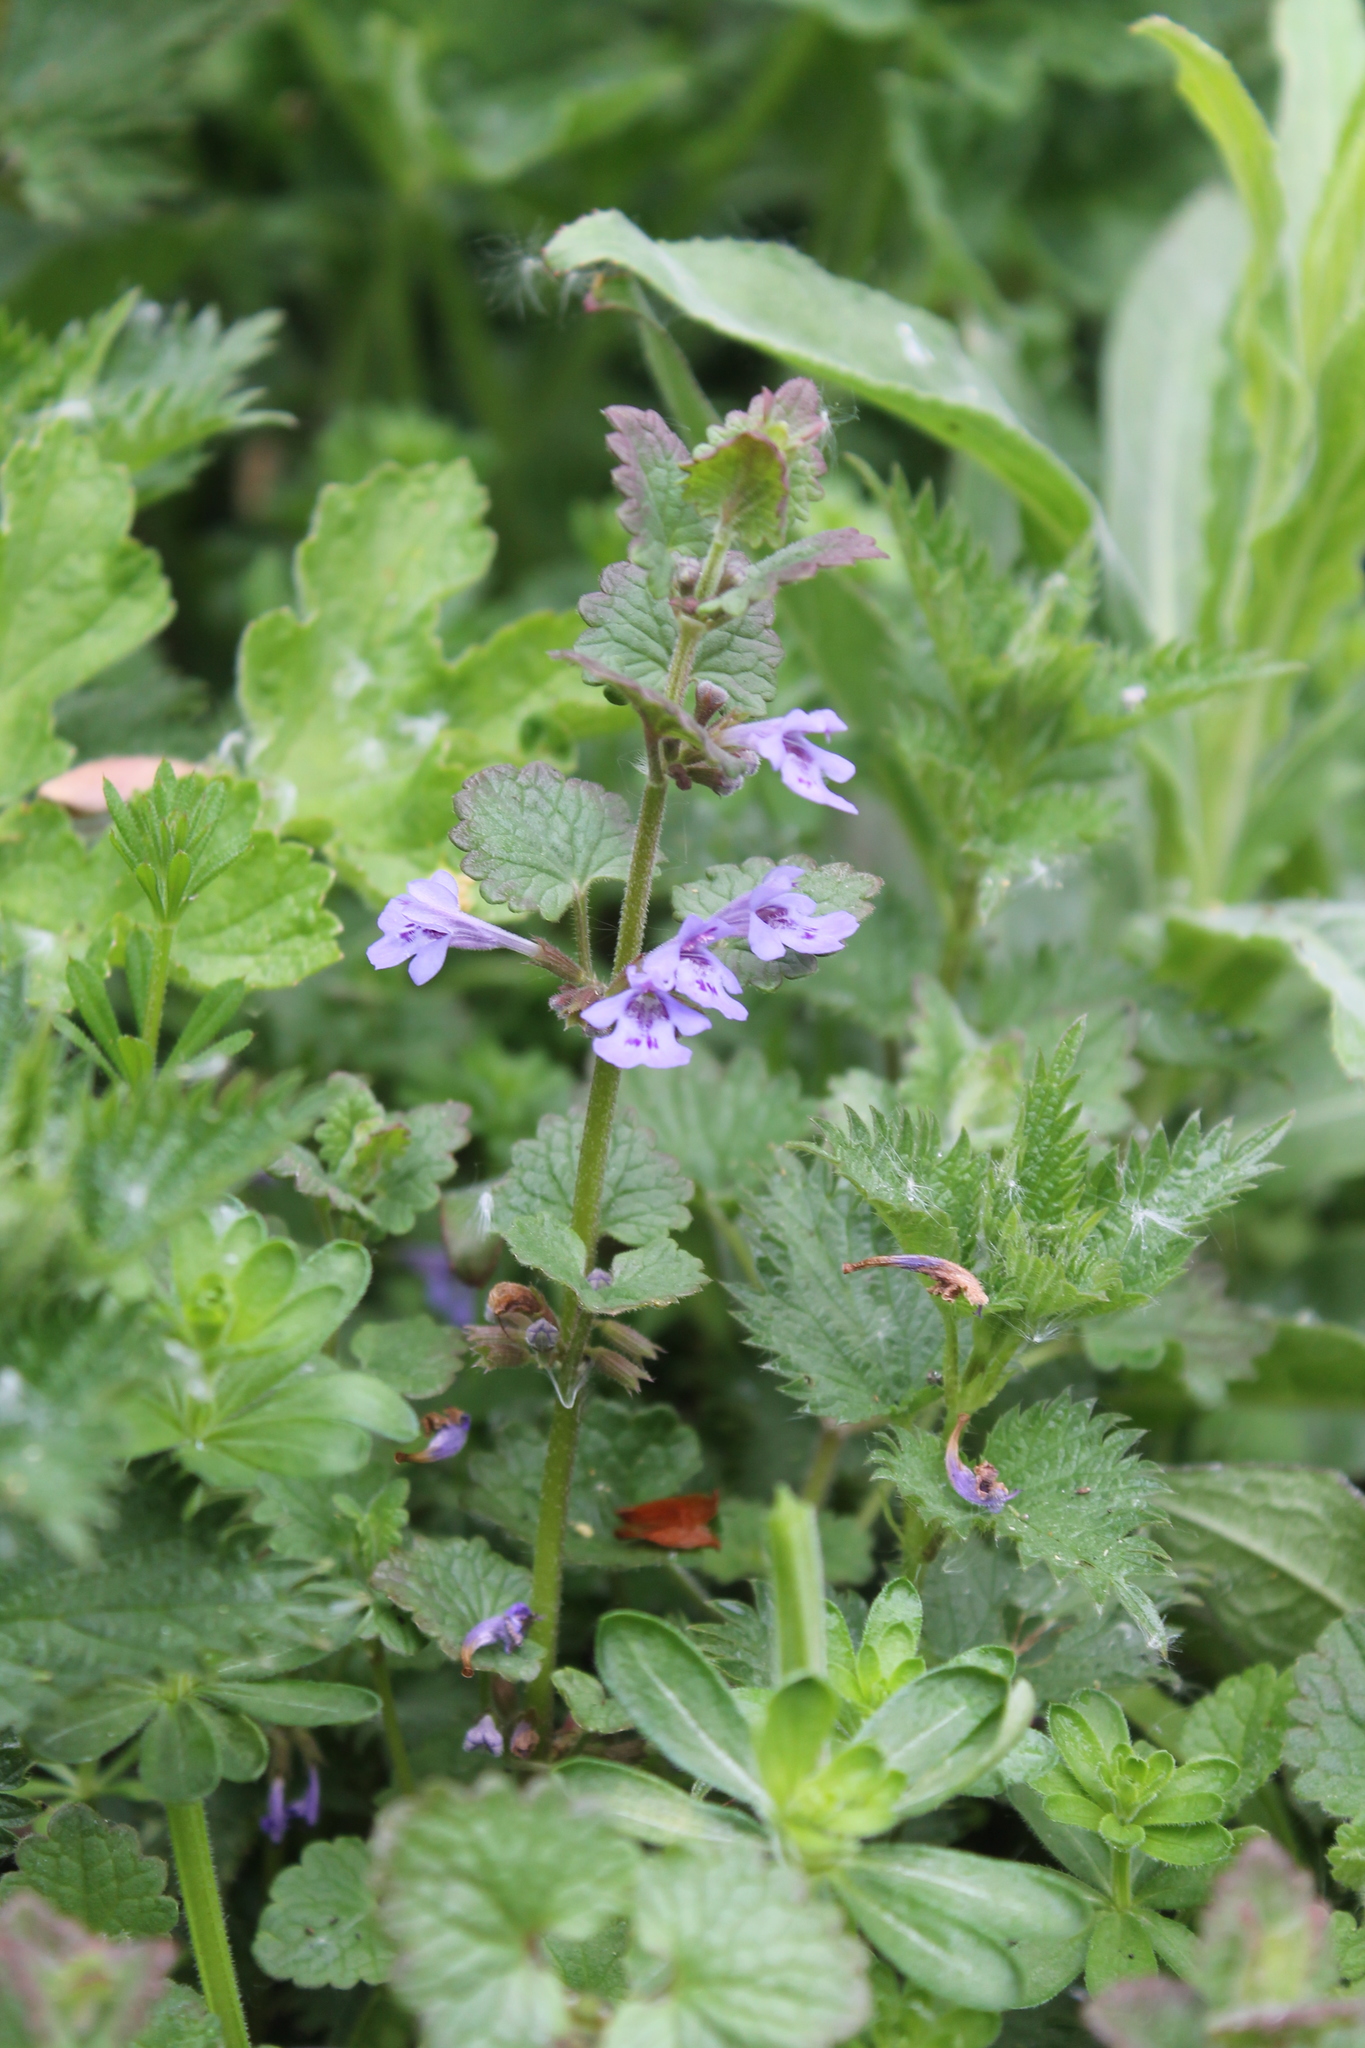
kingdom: Plantae
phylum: Tracheophyta
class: Magnoliopsida
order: Lamiales
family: Lamiaceae
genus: Glechoma
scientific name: Glechoma hederacea
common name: Ground ivy
